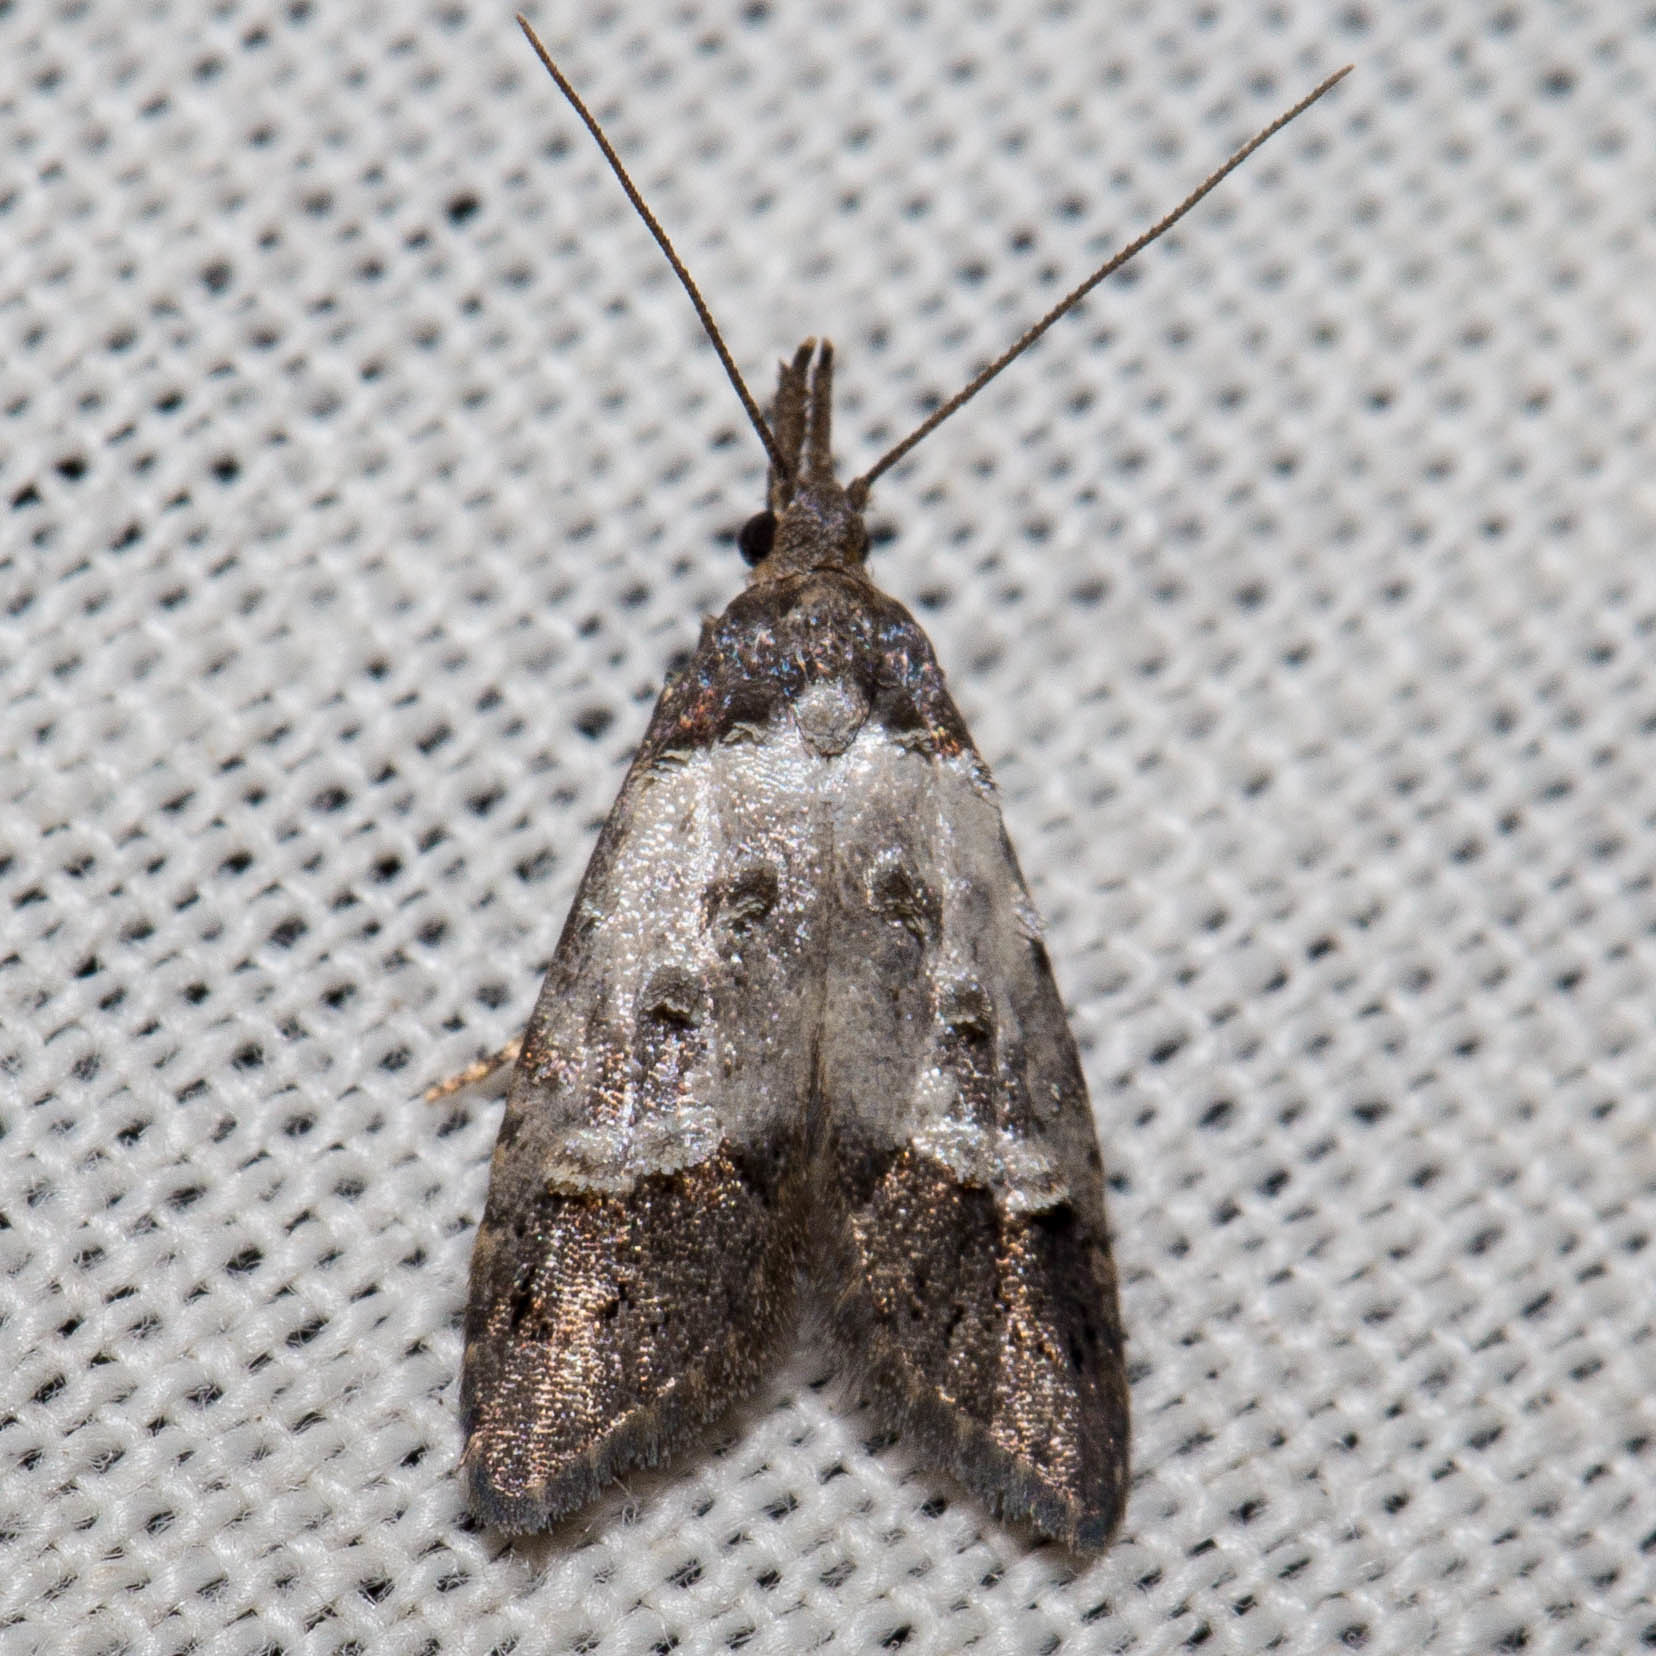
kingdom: Animalia
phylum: Arthropoda
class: Insecta
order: Lepidoptera
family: Carposinidae
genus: Bondia
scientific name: Bondia comonana
